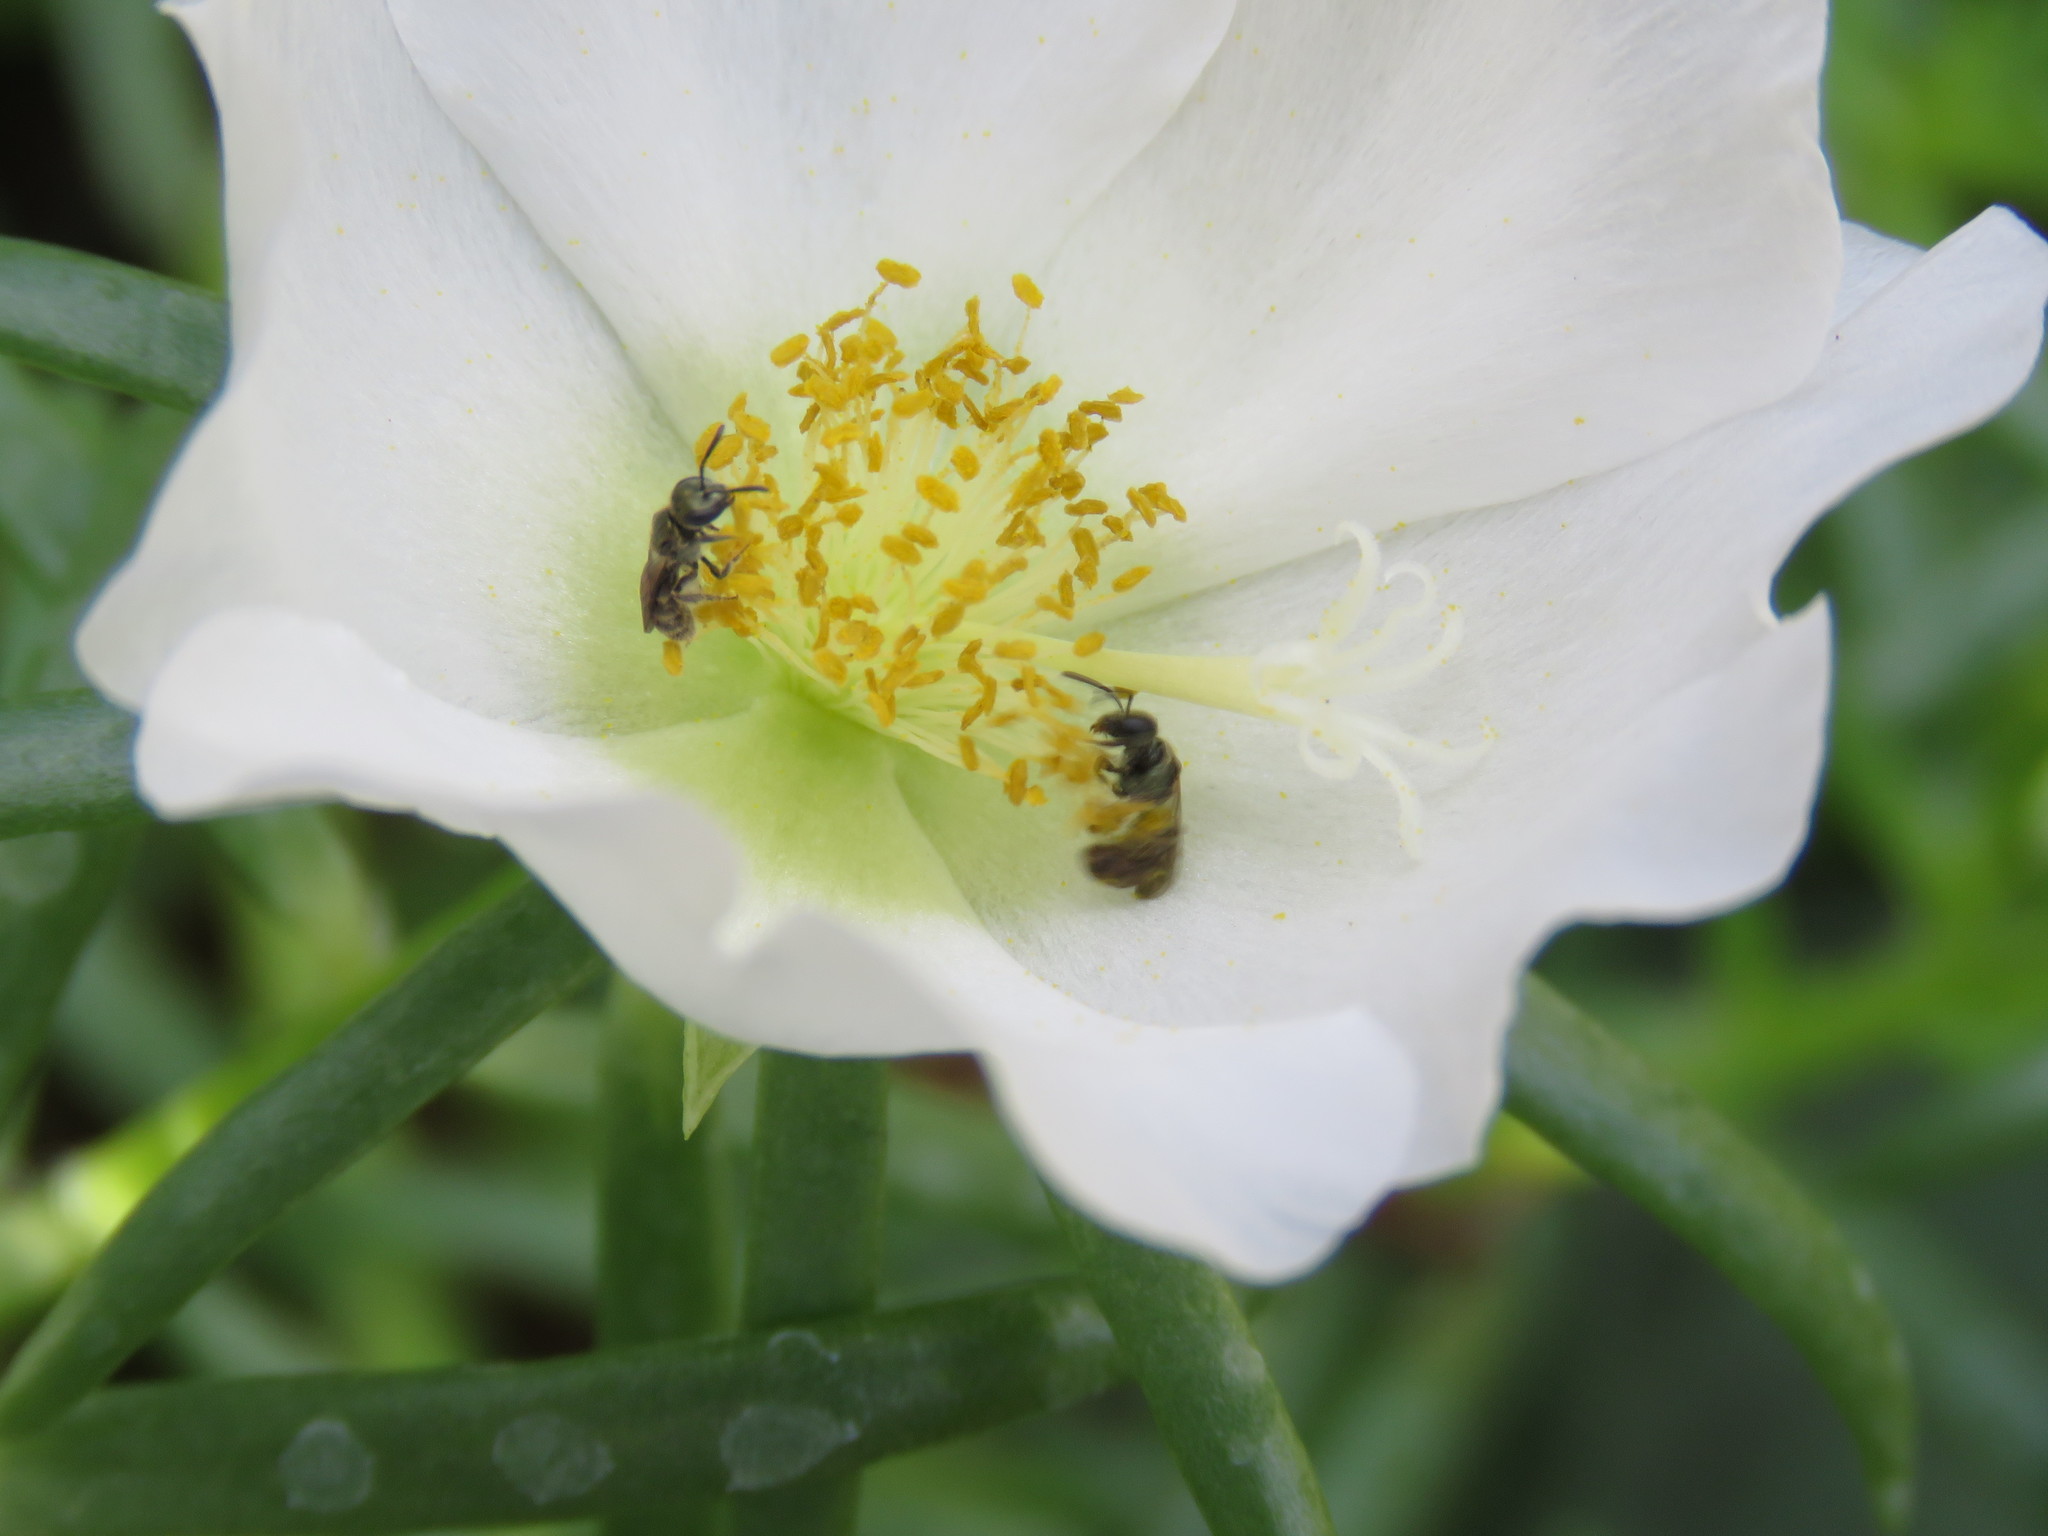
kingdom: Animalia
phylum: Arthropoda
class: Insecta
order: Hymenoptera
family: Halictidae
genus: Dialictus
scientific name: Dialictus
